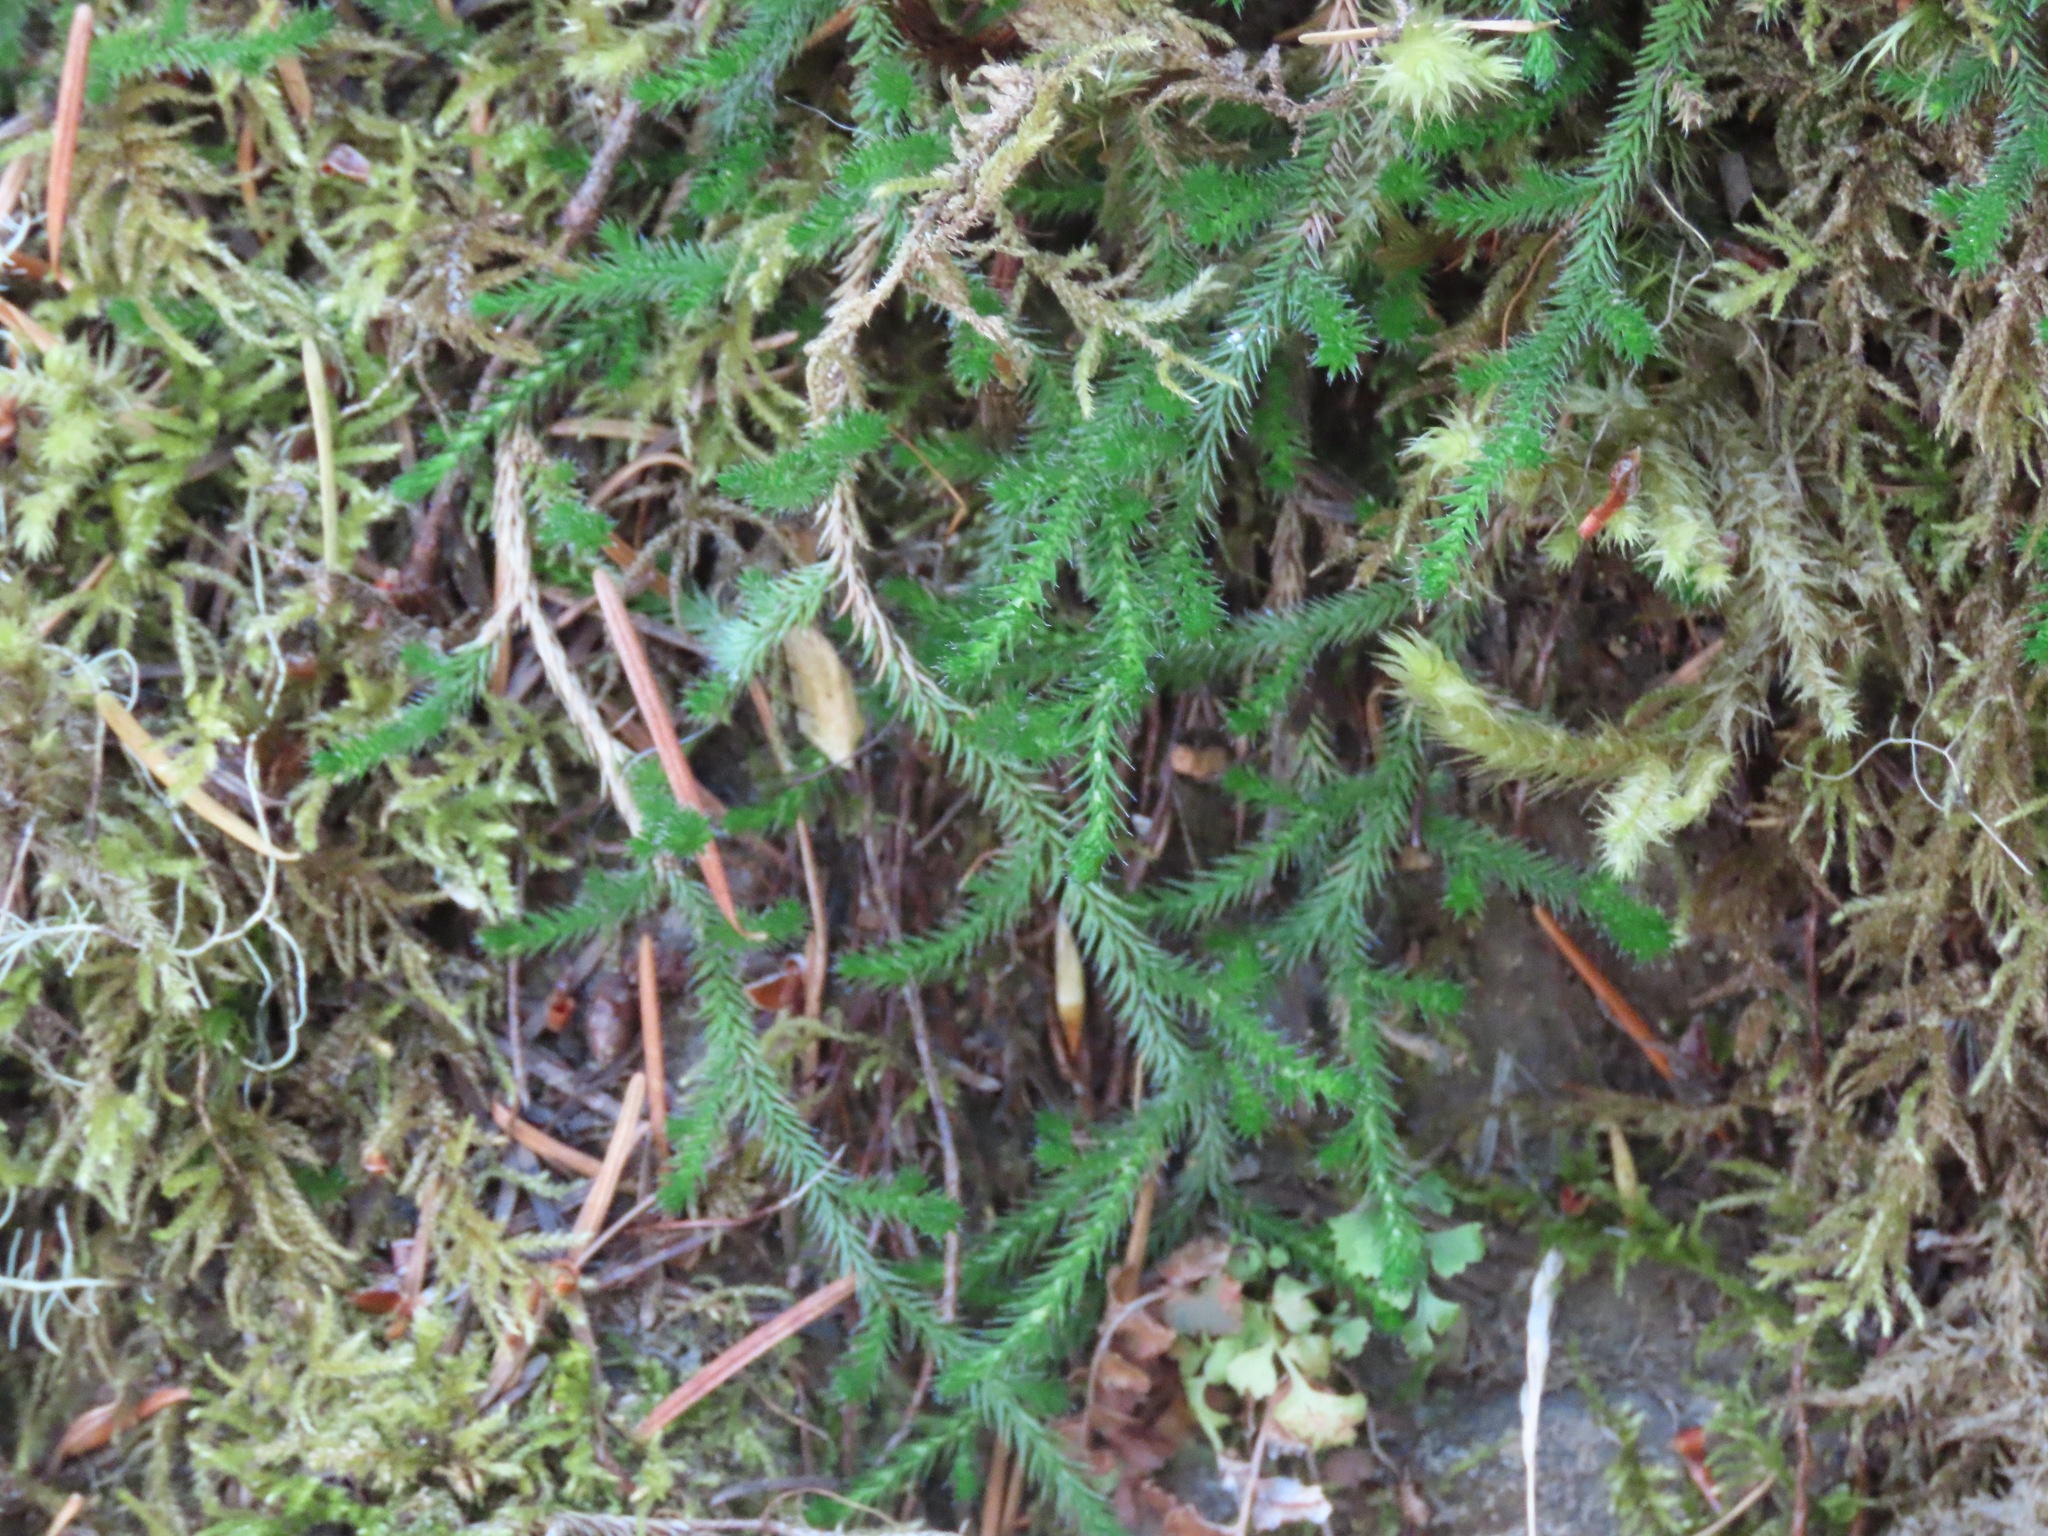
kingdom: Plantae
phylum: Tracheophyta
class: Lycopodiopsida
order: Selaginellales
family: Selaginellaceae
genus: Selaginella
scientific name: Selaginella wallacei
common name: Wallace's selaginella
